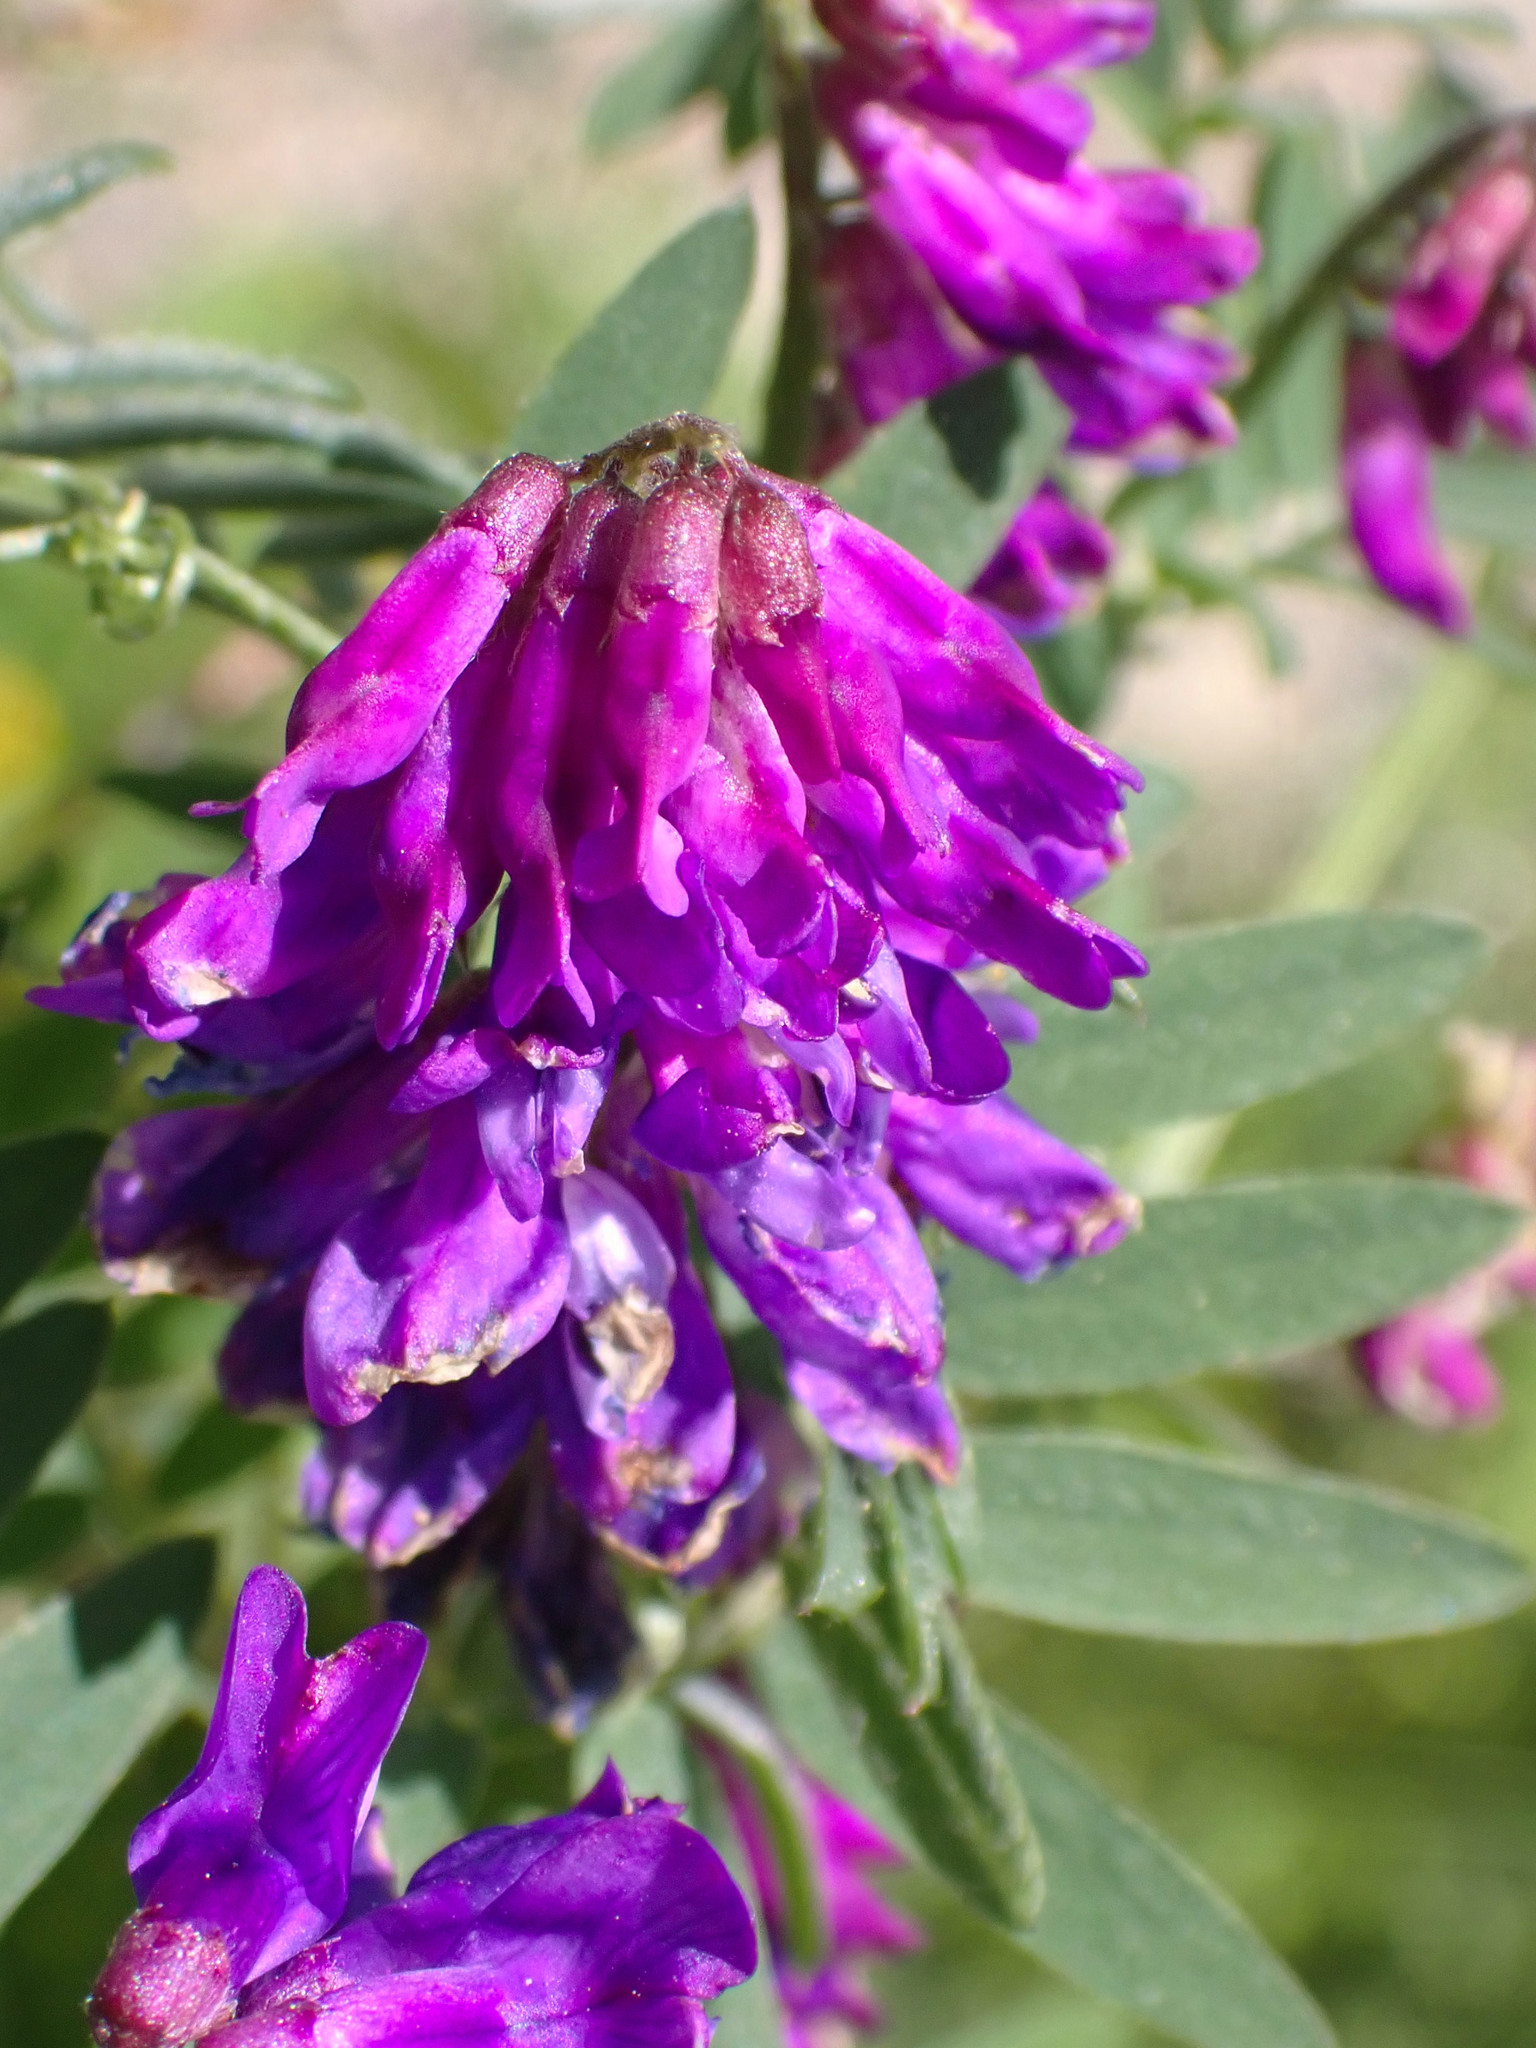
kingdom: Plantae
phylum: Tracheophyta
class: Magnoliopsida
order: Fabales
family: Fabaceae
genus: Vicia
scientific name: Vicia cracca
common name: Bird vetch
